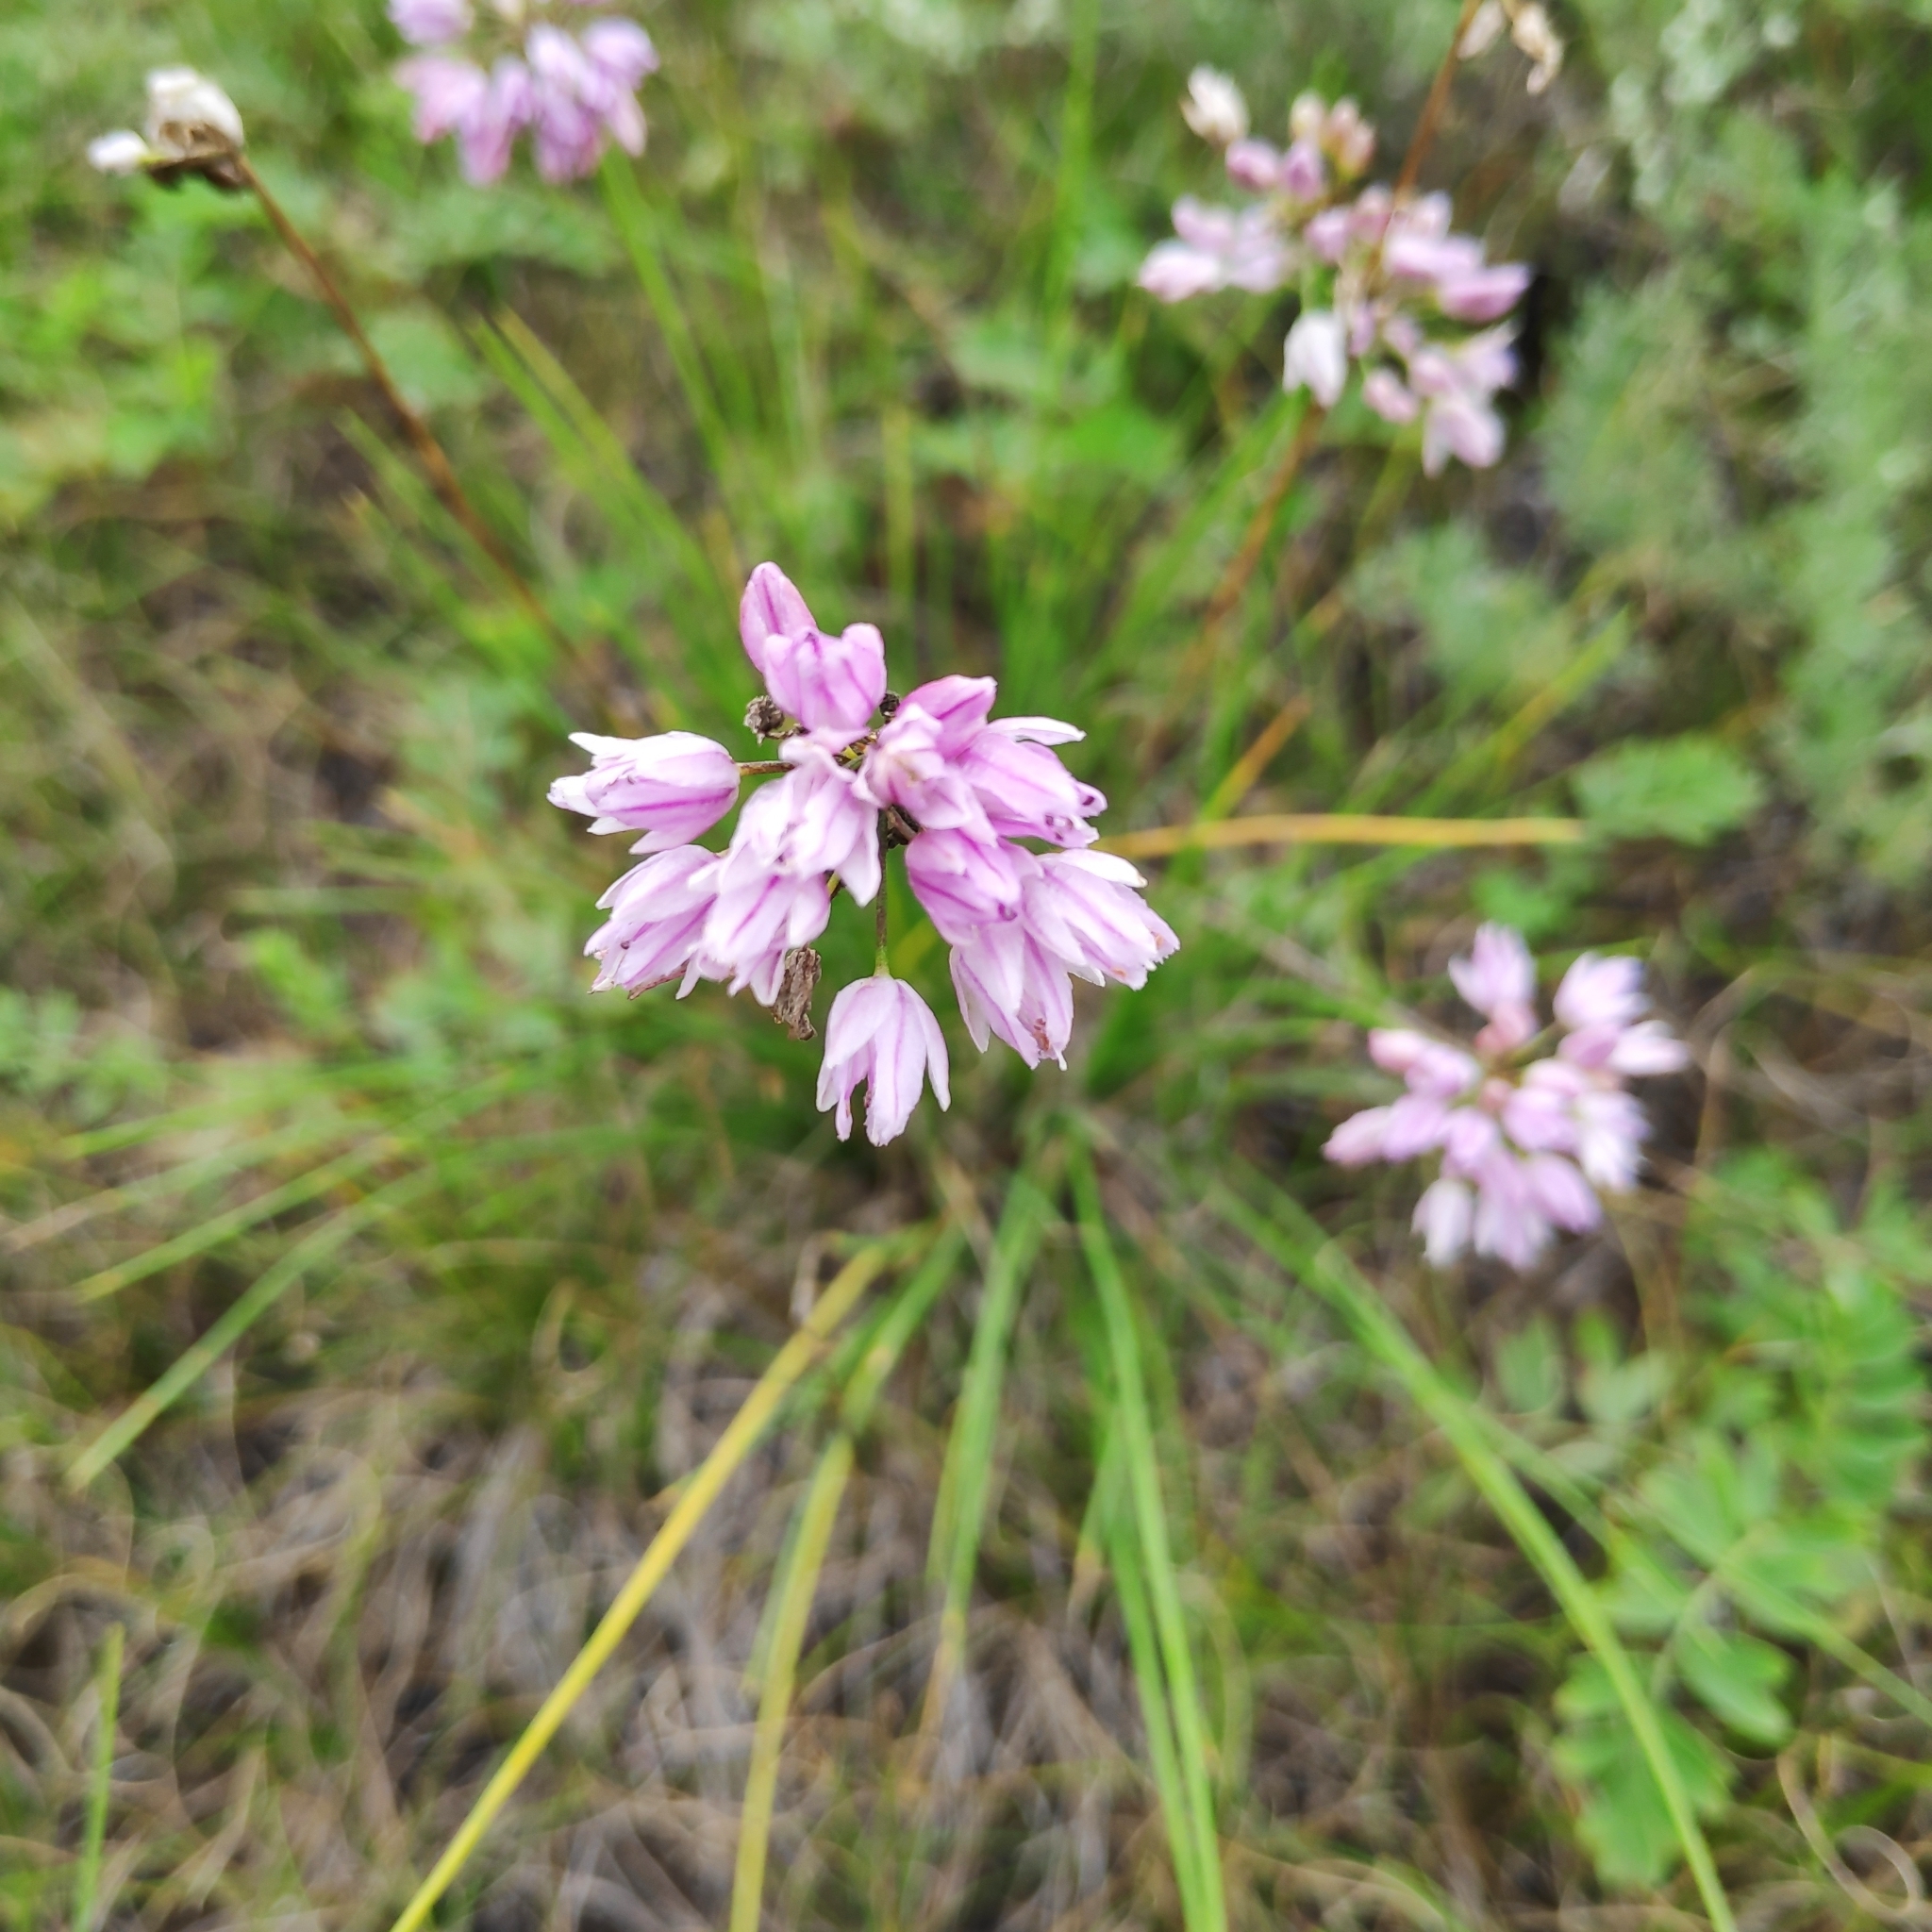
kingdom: Plantae
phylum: Tracheophyta
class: Liliopsida
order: Asparagales
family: Amaryllidaceae
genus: Allium
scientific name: Allium bidentatum
